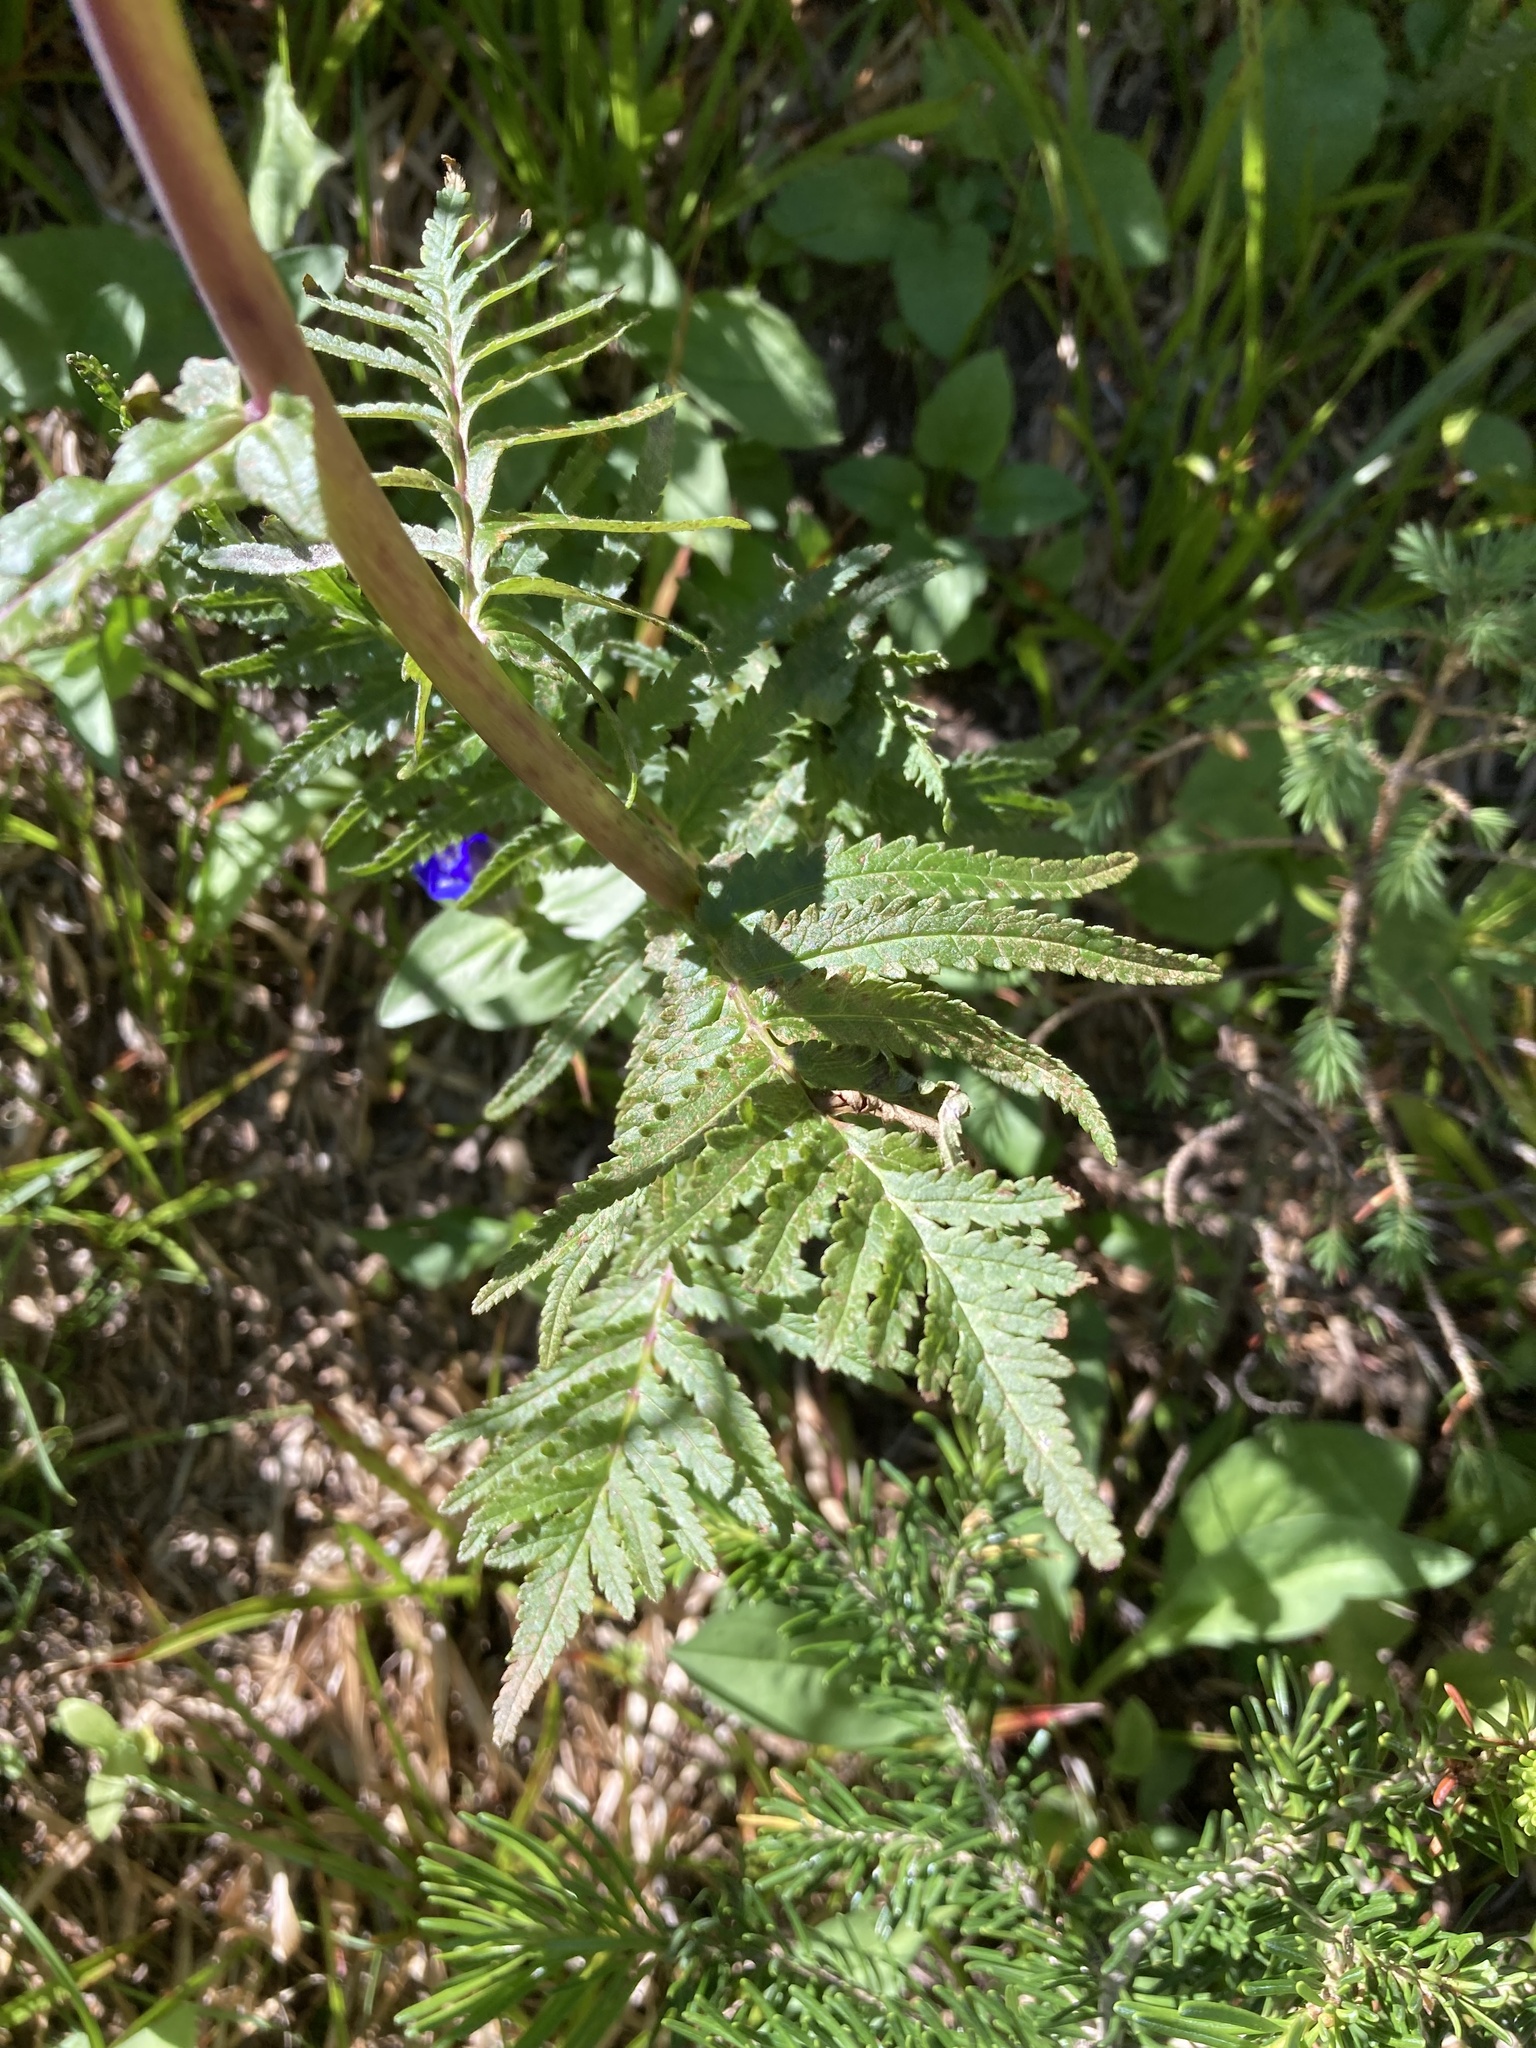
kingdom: Plantae
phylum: Tracheophyta
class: Magnoliopsida
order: Lamiales
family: Orobanchaceae
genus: Pedicularis
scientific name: Pedicularis bracteosa
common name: Bracted lousewort
